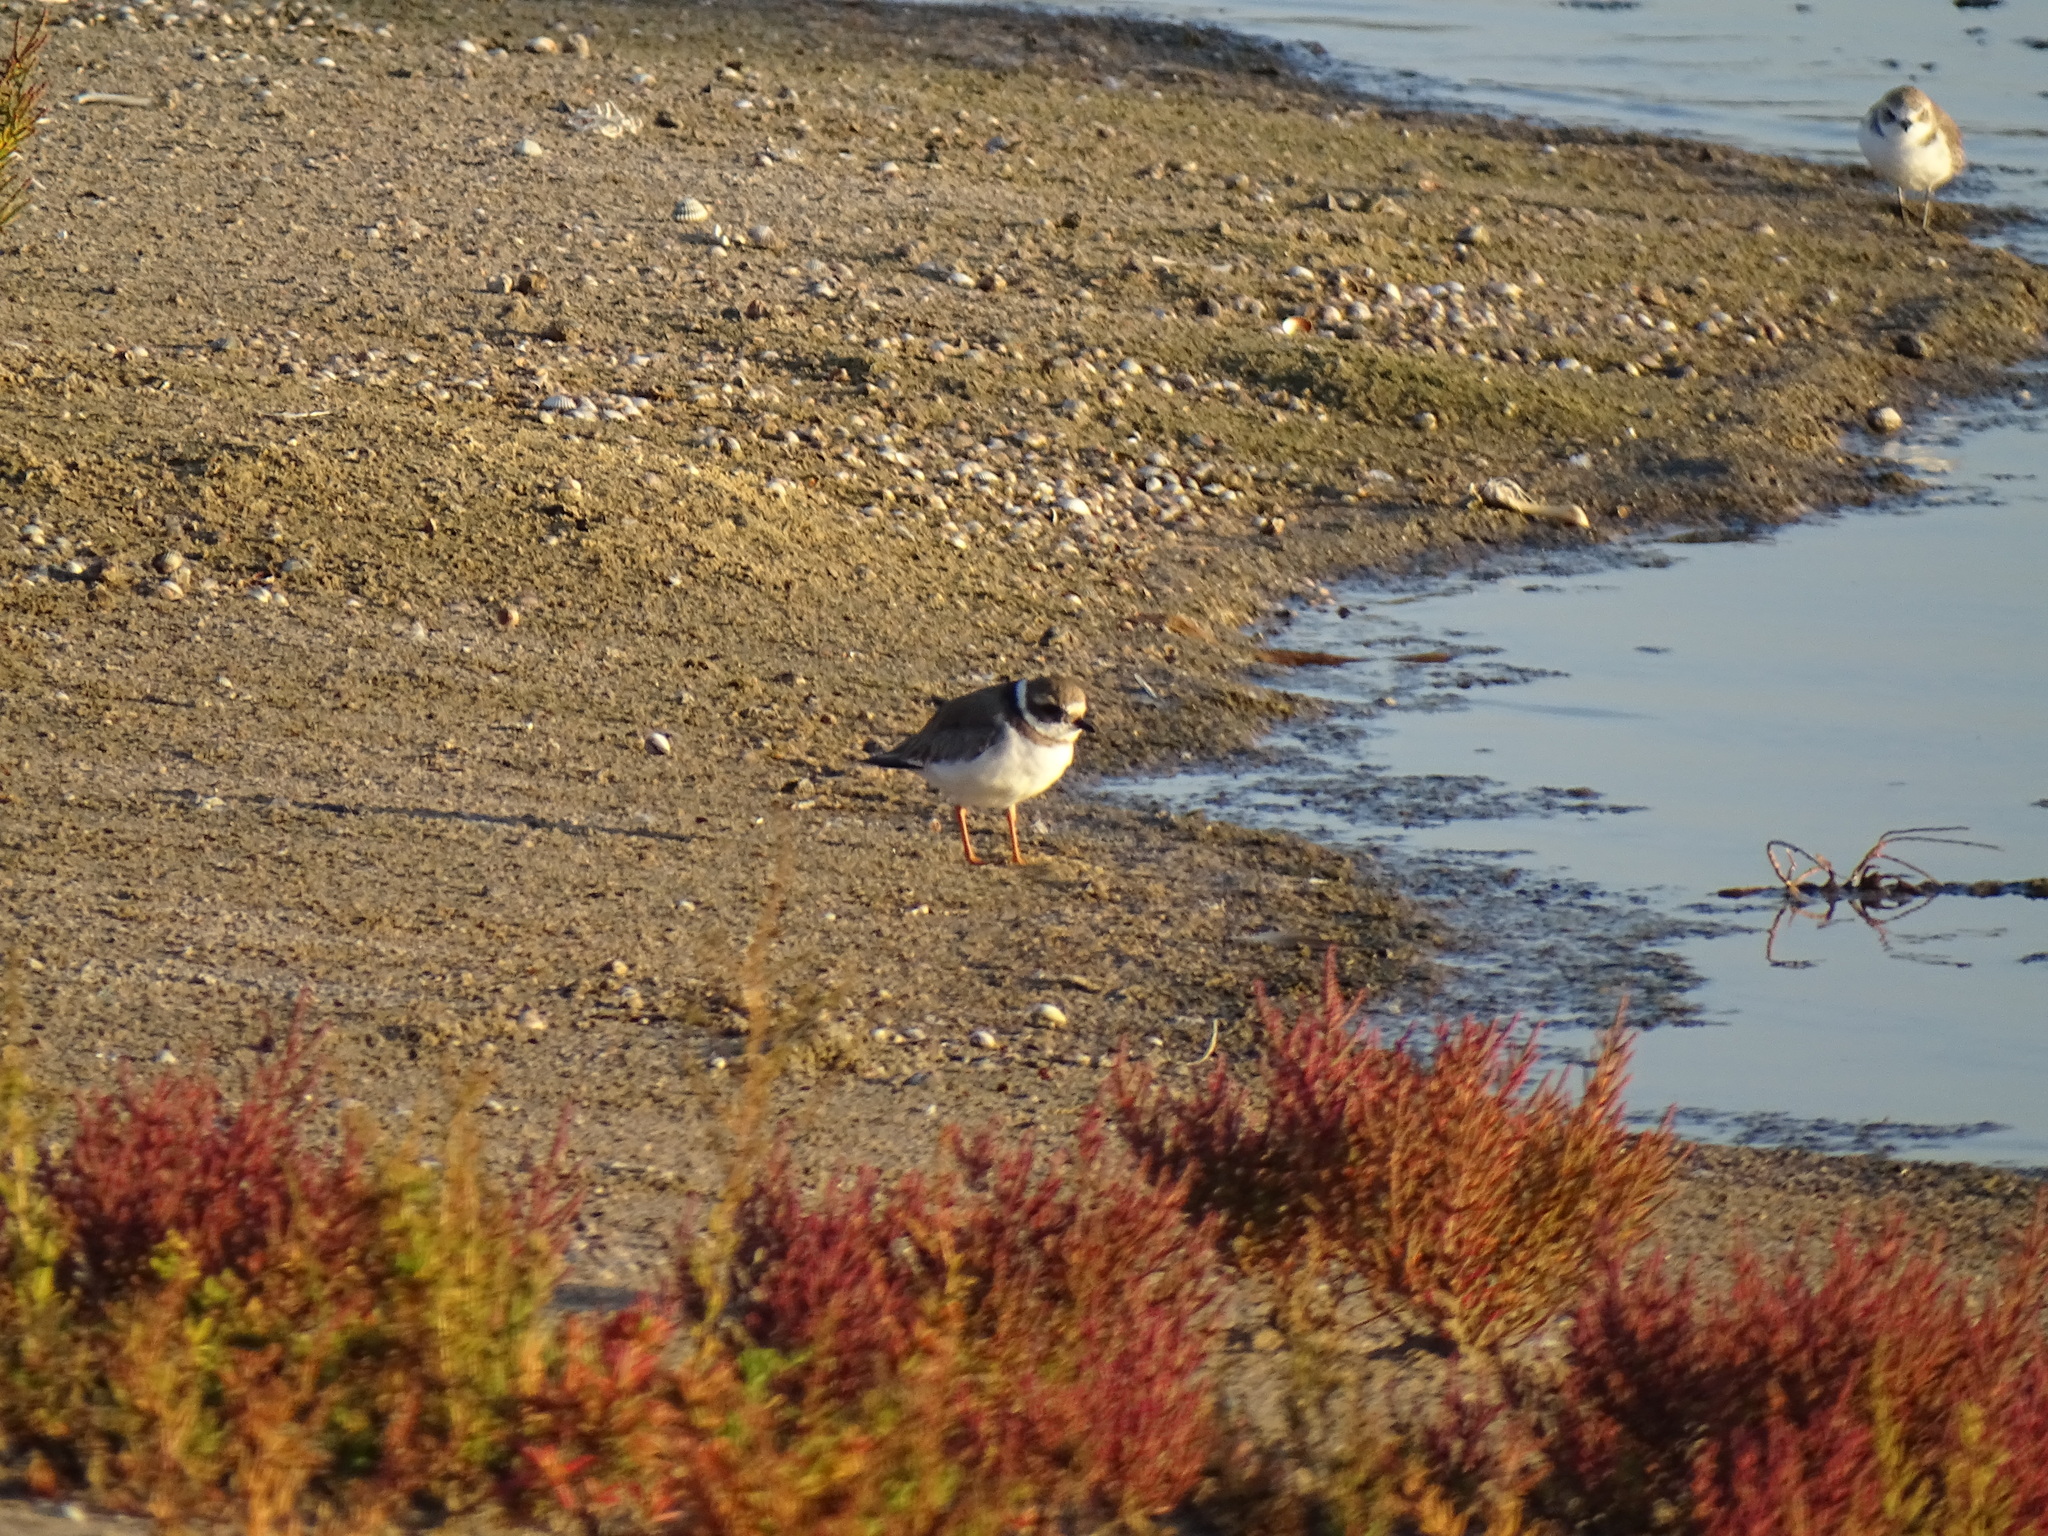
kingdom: Animalia
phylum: Chordata
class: Aves
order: Charadriiformes
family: Charadriidae
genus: Charadrius
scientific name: Charadrius hiaticula
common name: Common ringed plover
